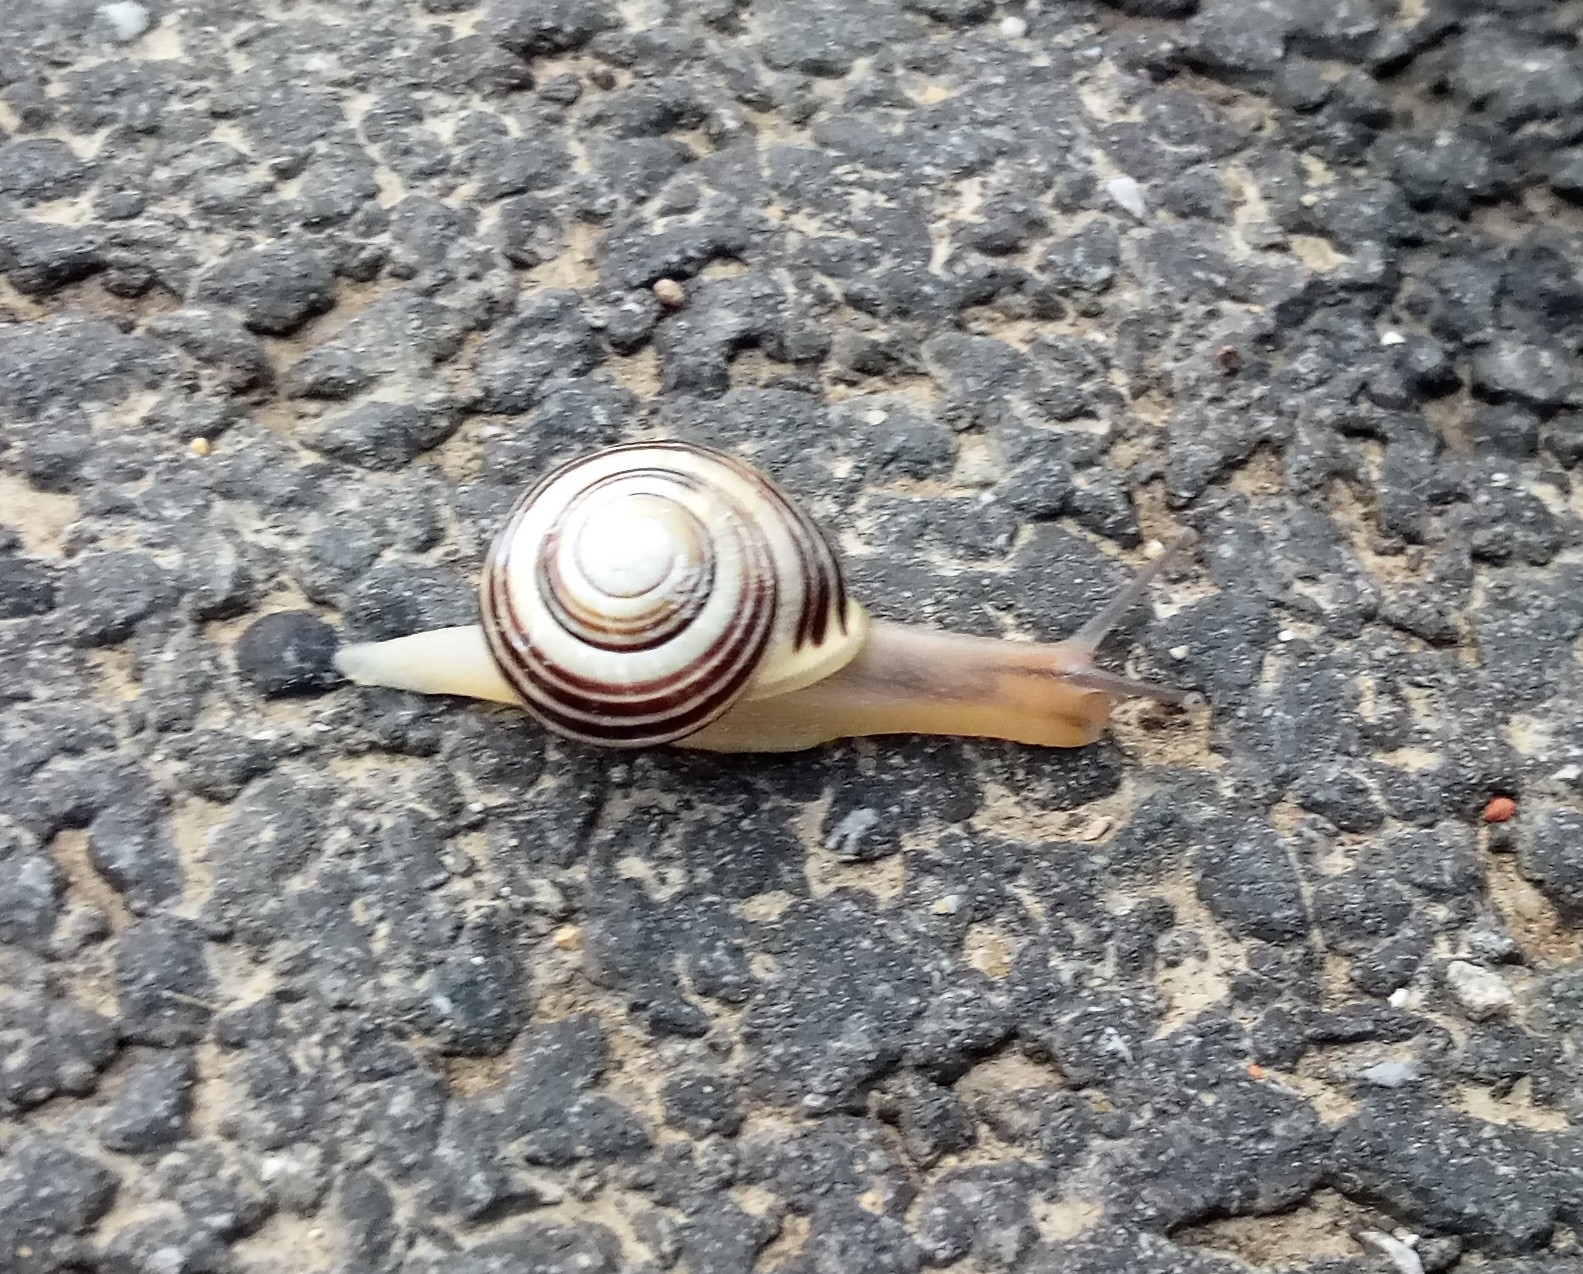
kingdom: Animalia
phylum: Mollusca
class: Gastropoda
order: Stylommatophora
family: Helicidae
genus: Cepaea
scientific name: Cepaea hortensis
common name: White-lip gardensnail
